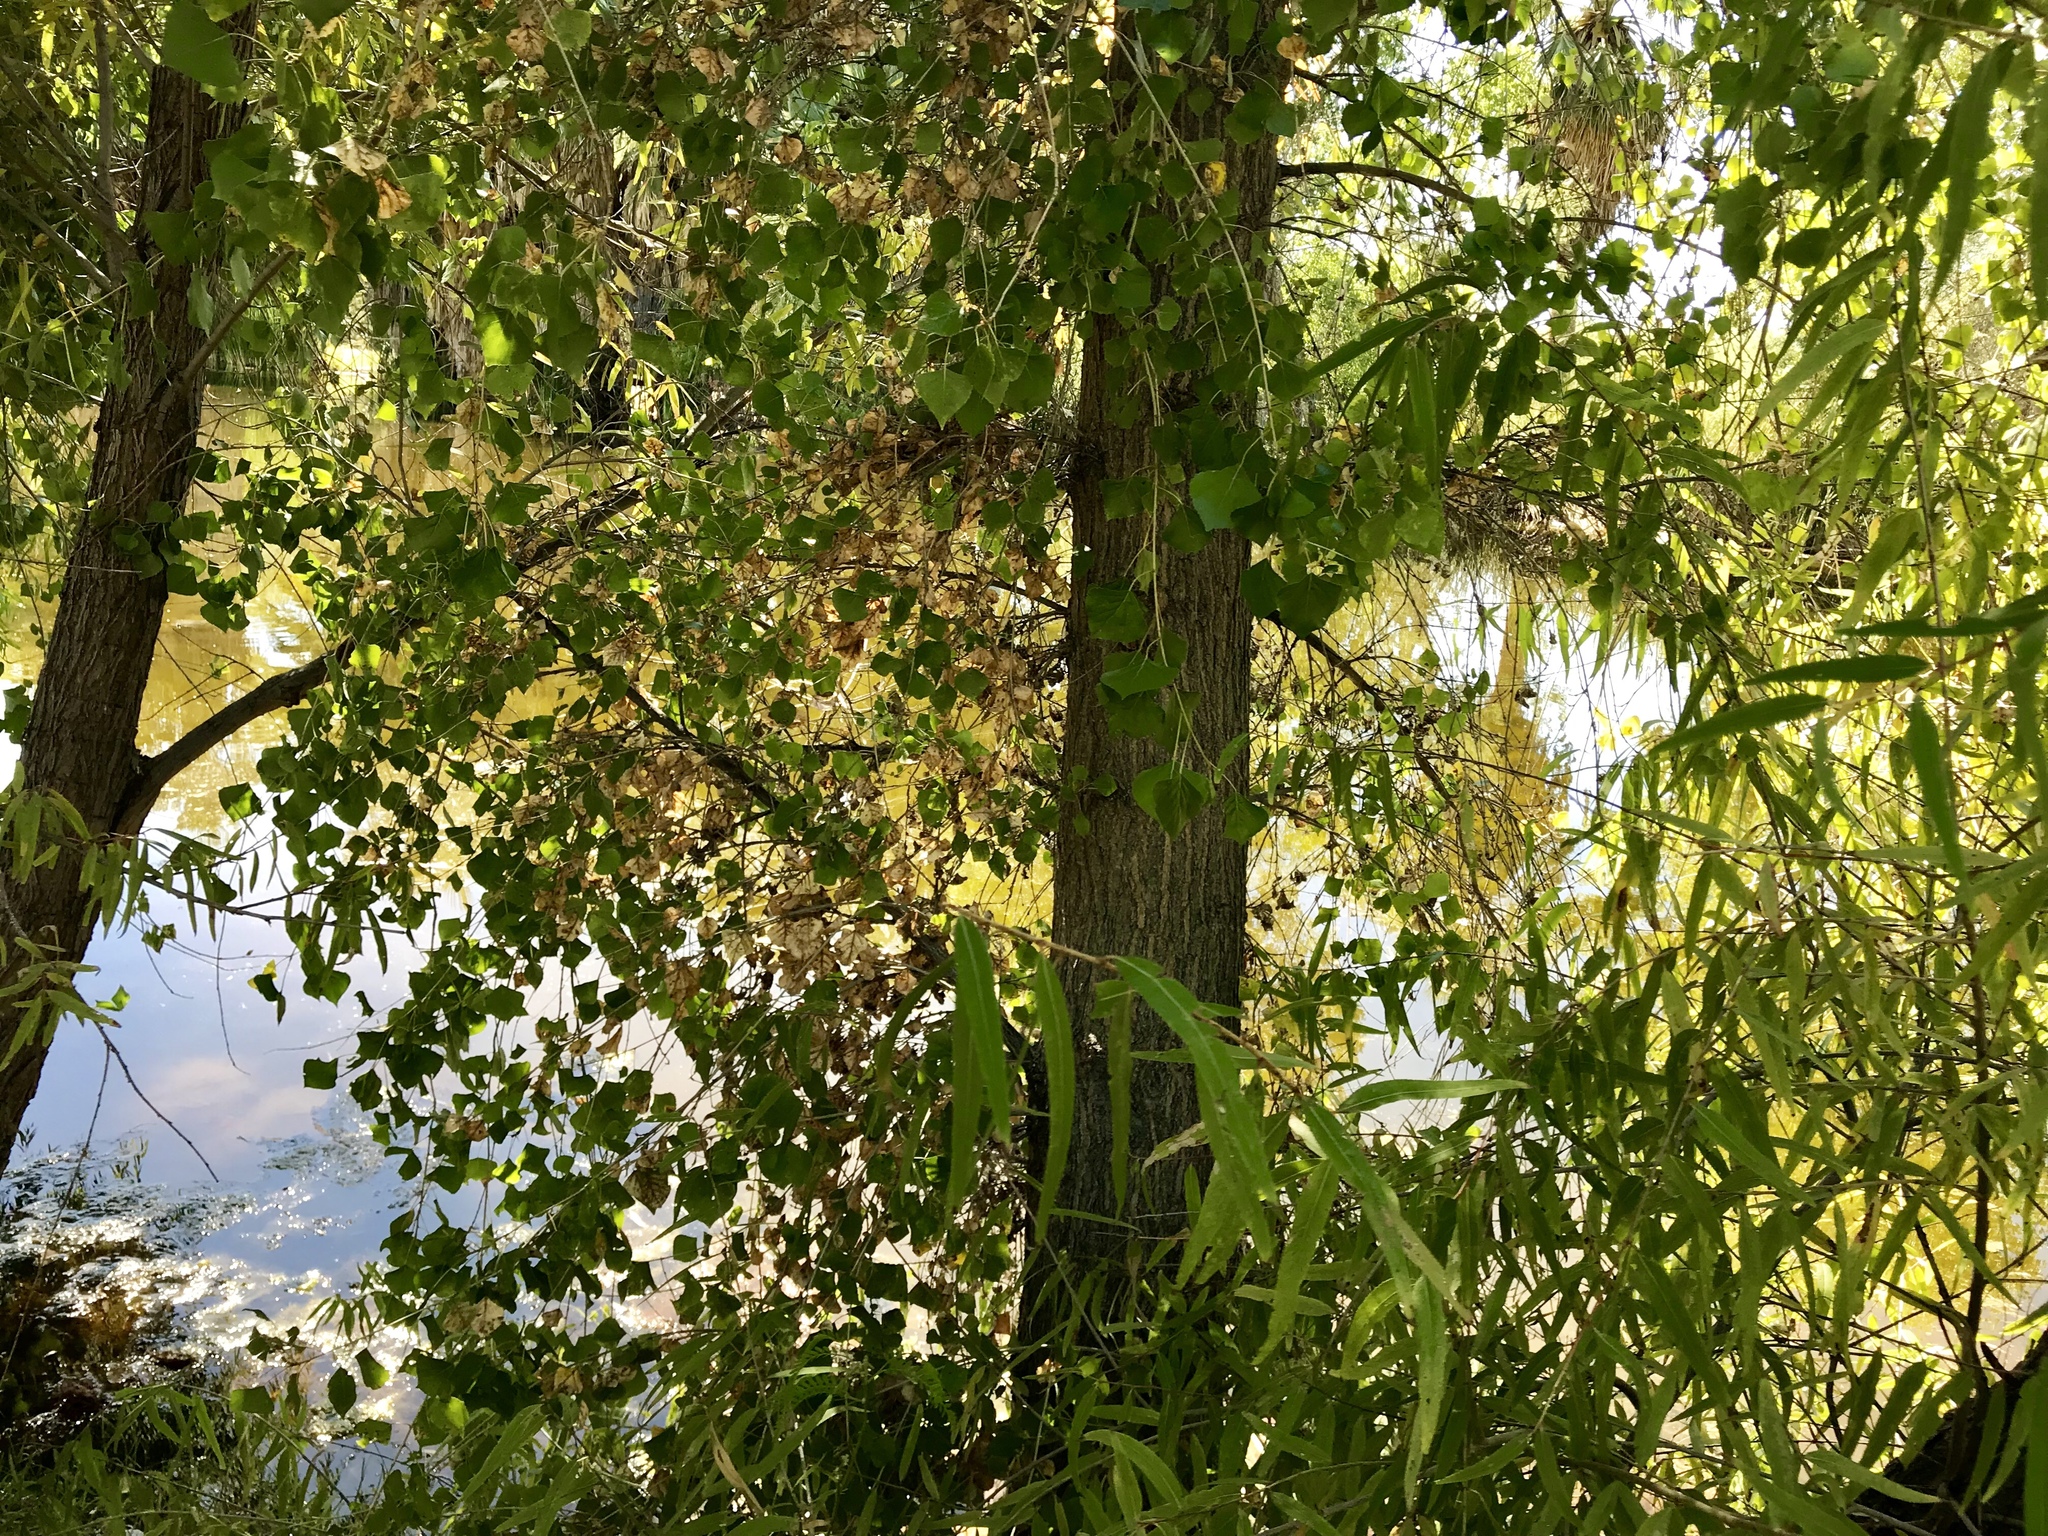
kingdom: Plantae
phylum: Tracheophyta
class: Magnoliopsida
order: Malpighiales
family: Salicaceae
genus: Populus
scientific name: Populus fremontii
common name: Fremont's cottonwood
